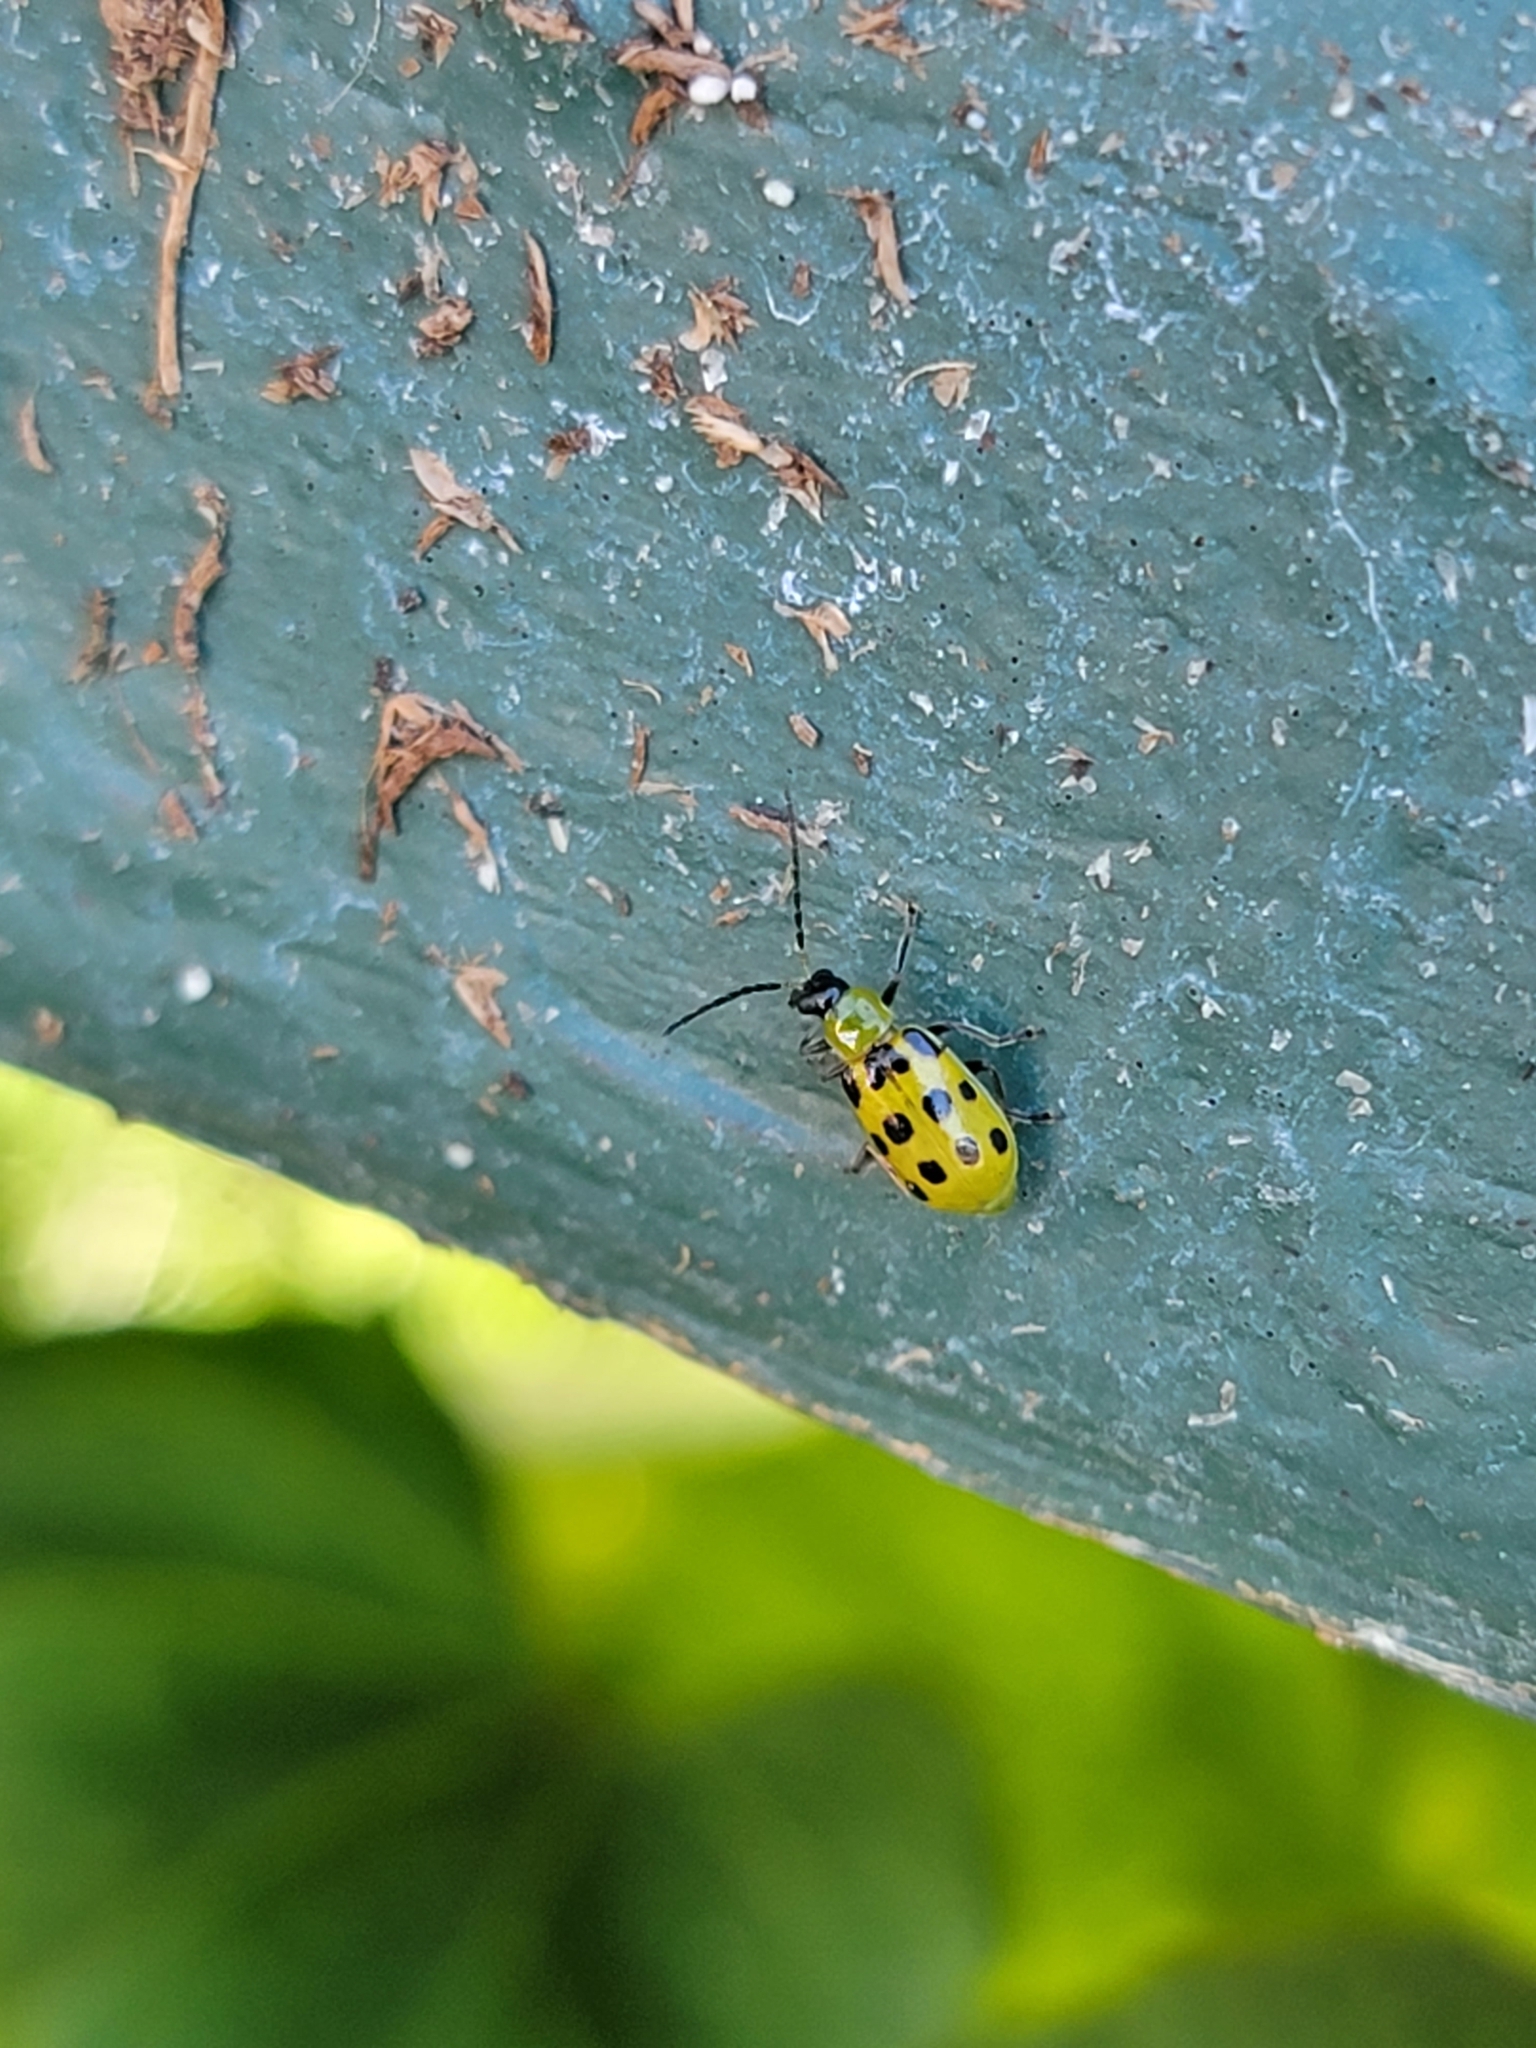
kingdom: Animalia
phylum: Arthropoda
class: Insecta
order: Coleoptera
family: Chrysomelidae
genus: Diabrotica
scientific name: Diabrotica undecimpunctata
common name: Spotted cucumber beetle
